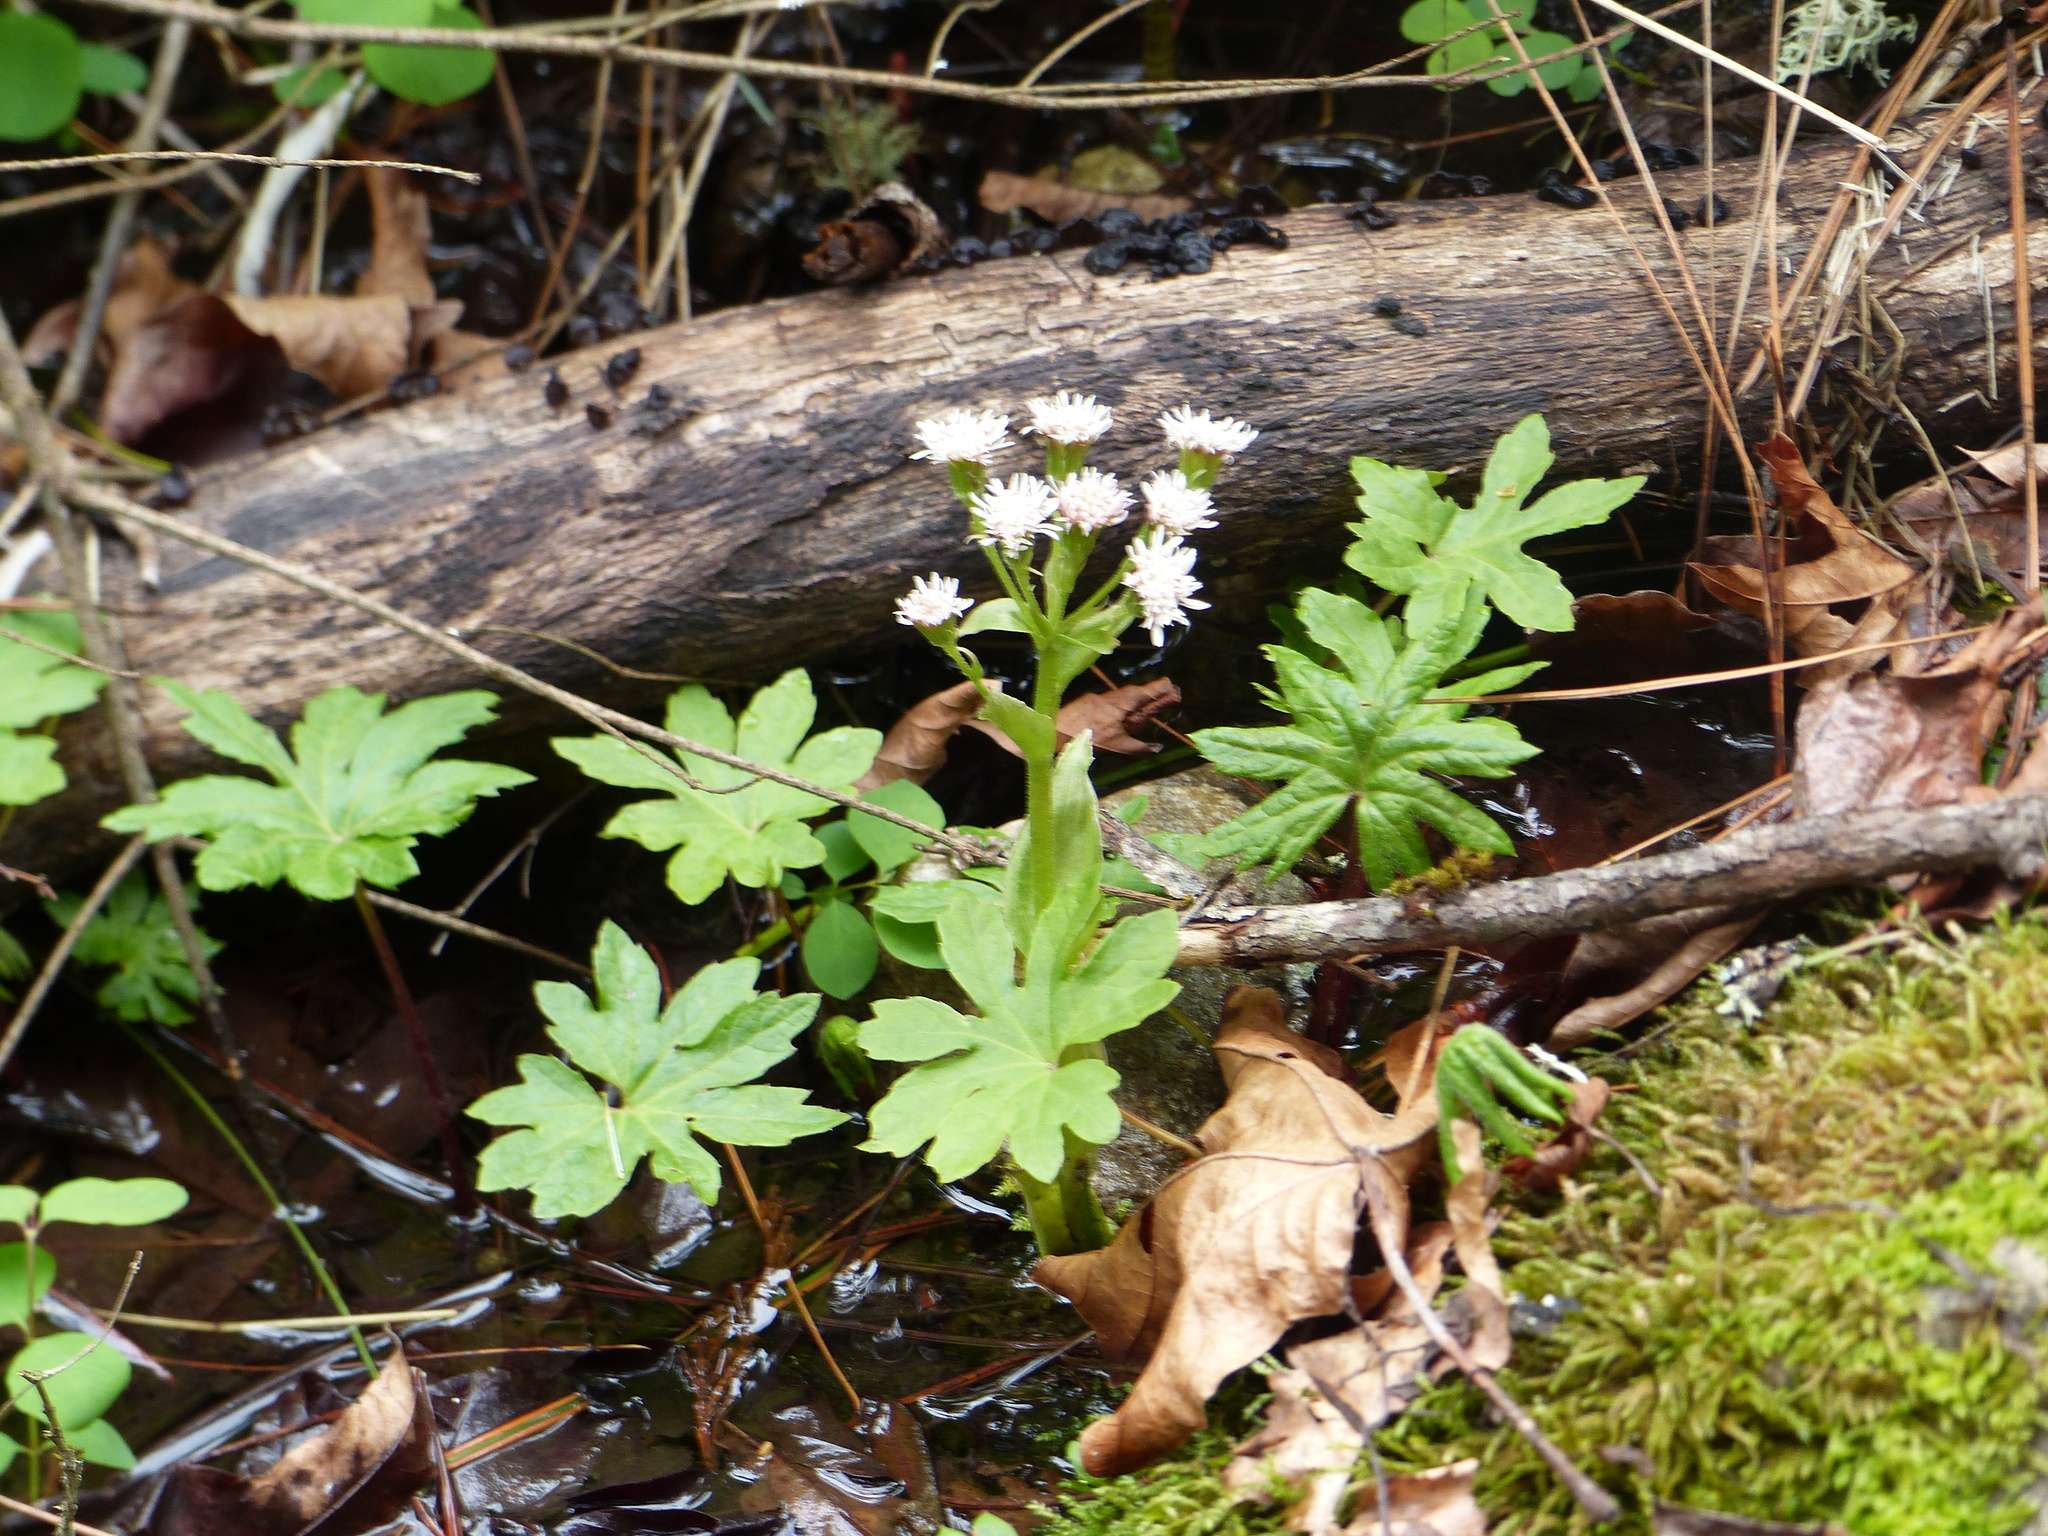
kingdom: Plantae
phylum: Tracheophyta
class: Magnoliopsida
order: Asterales
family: Asteraceae
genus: Petasites
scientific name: Petasites frigidus
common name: Arctic butterbur
